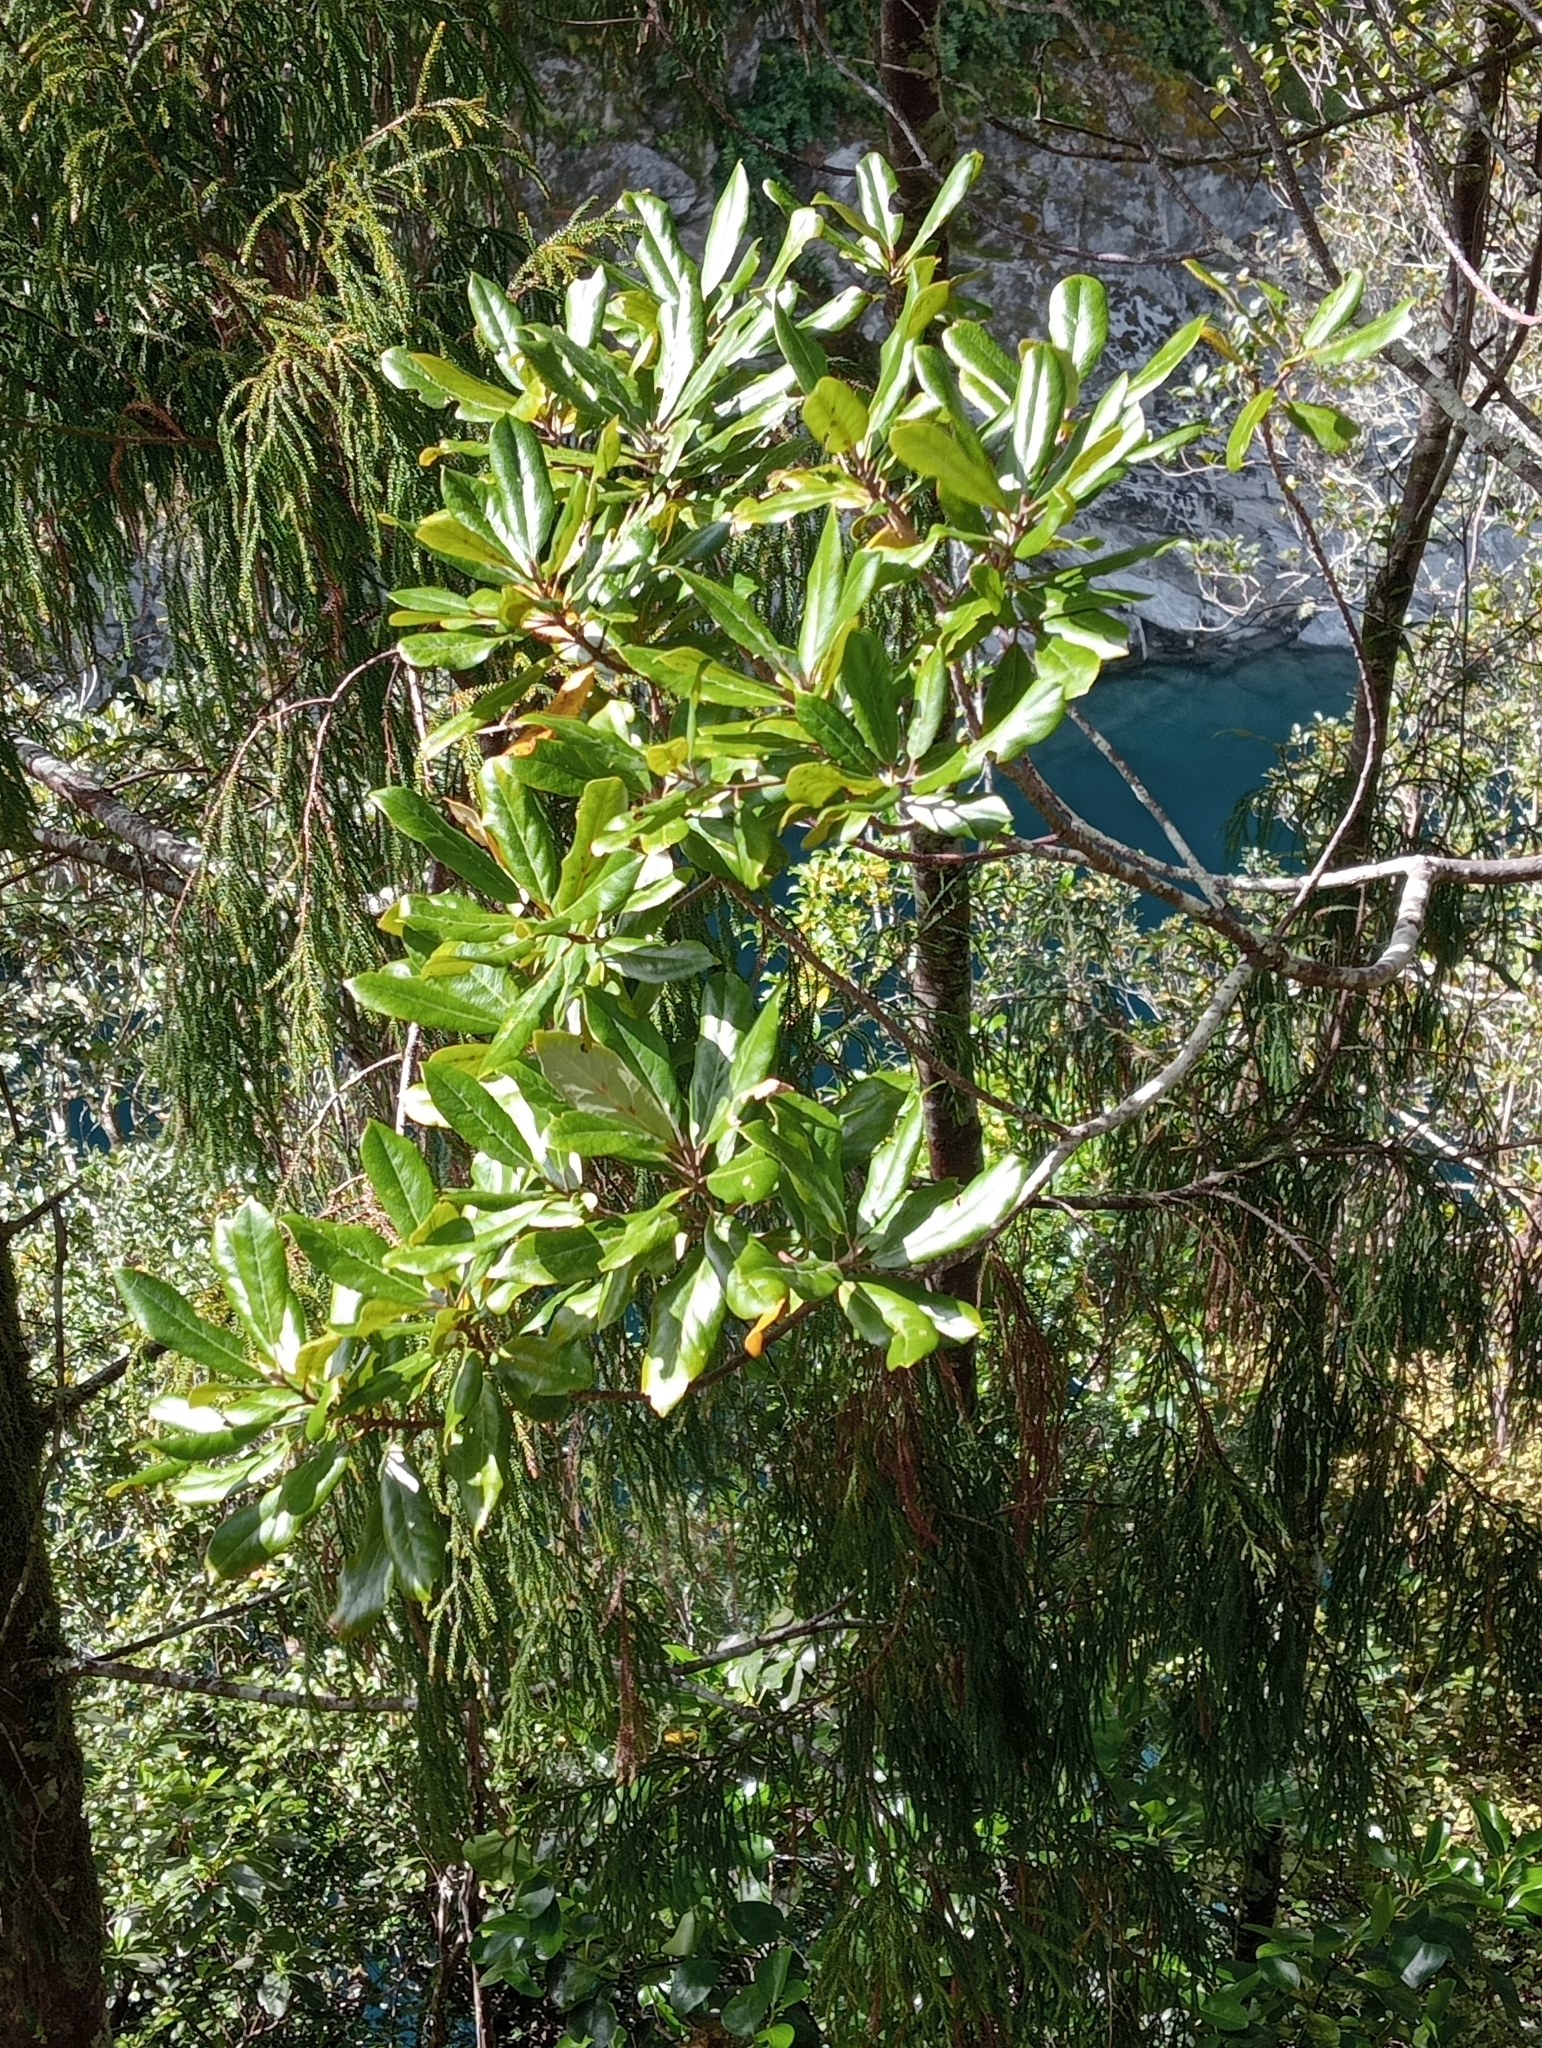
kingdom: Plantae
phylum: Tracheophyta
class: Magnoliopsida
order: Oxalidales
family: Elaeocarpaceae
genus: Elaeocarpus
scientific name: Elaeocarpus dentatus
